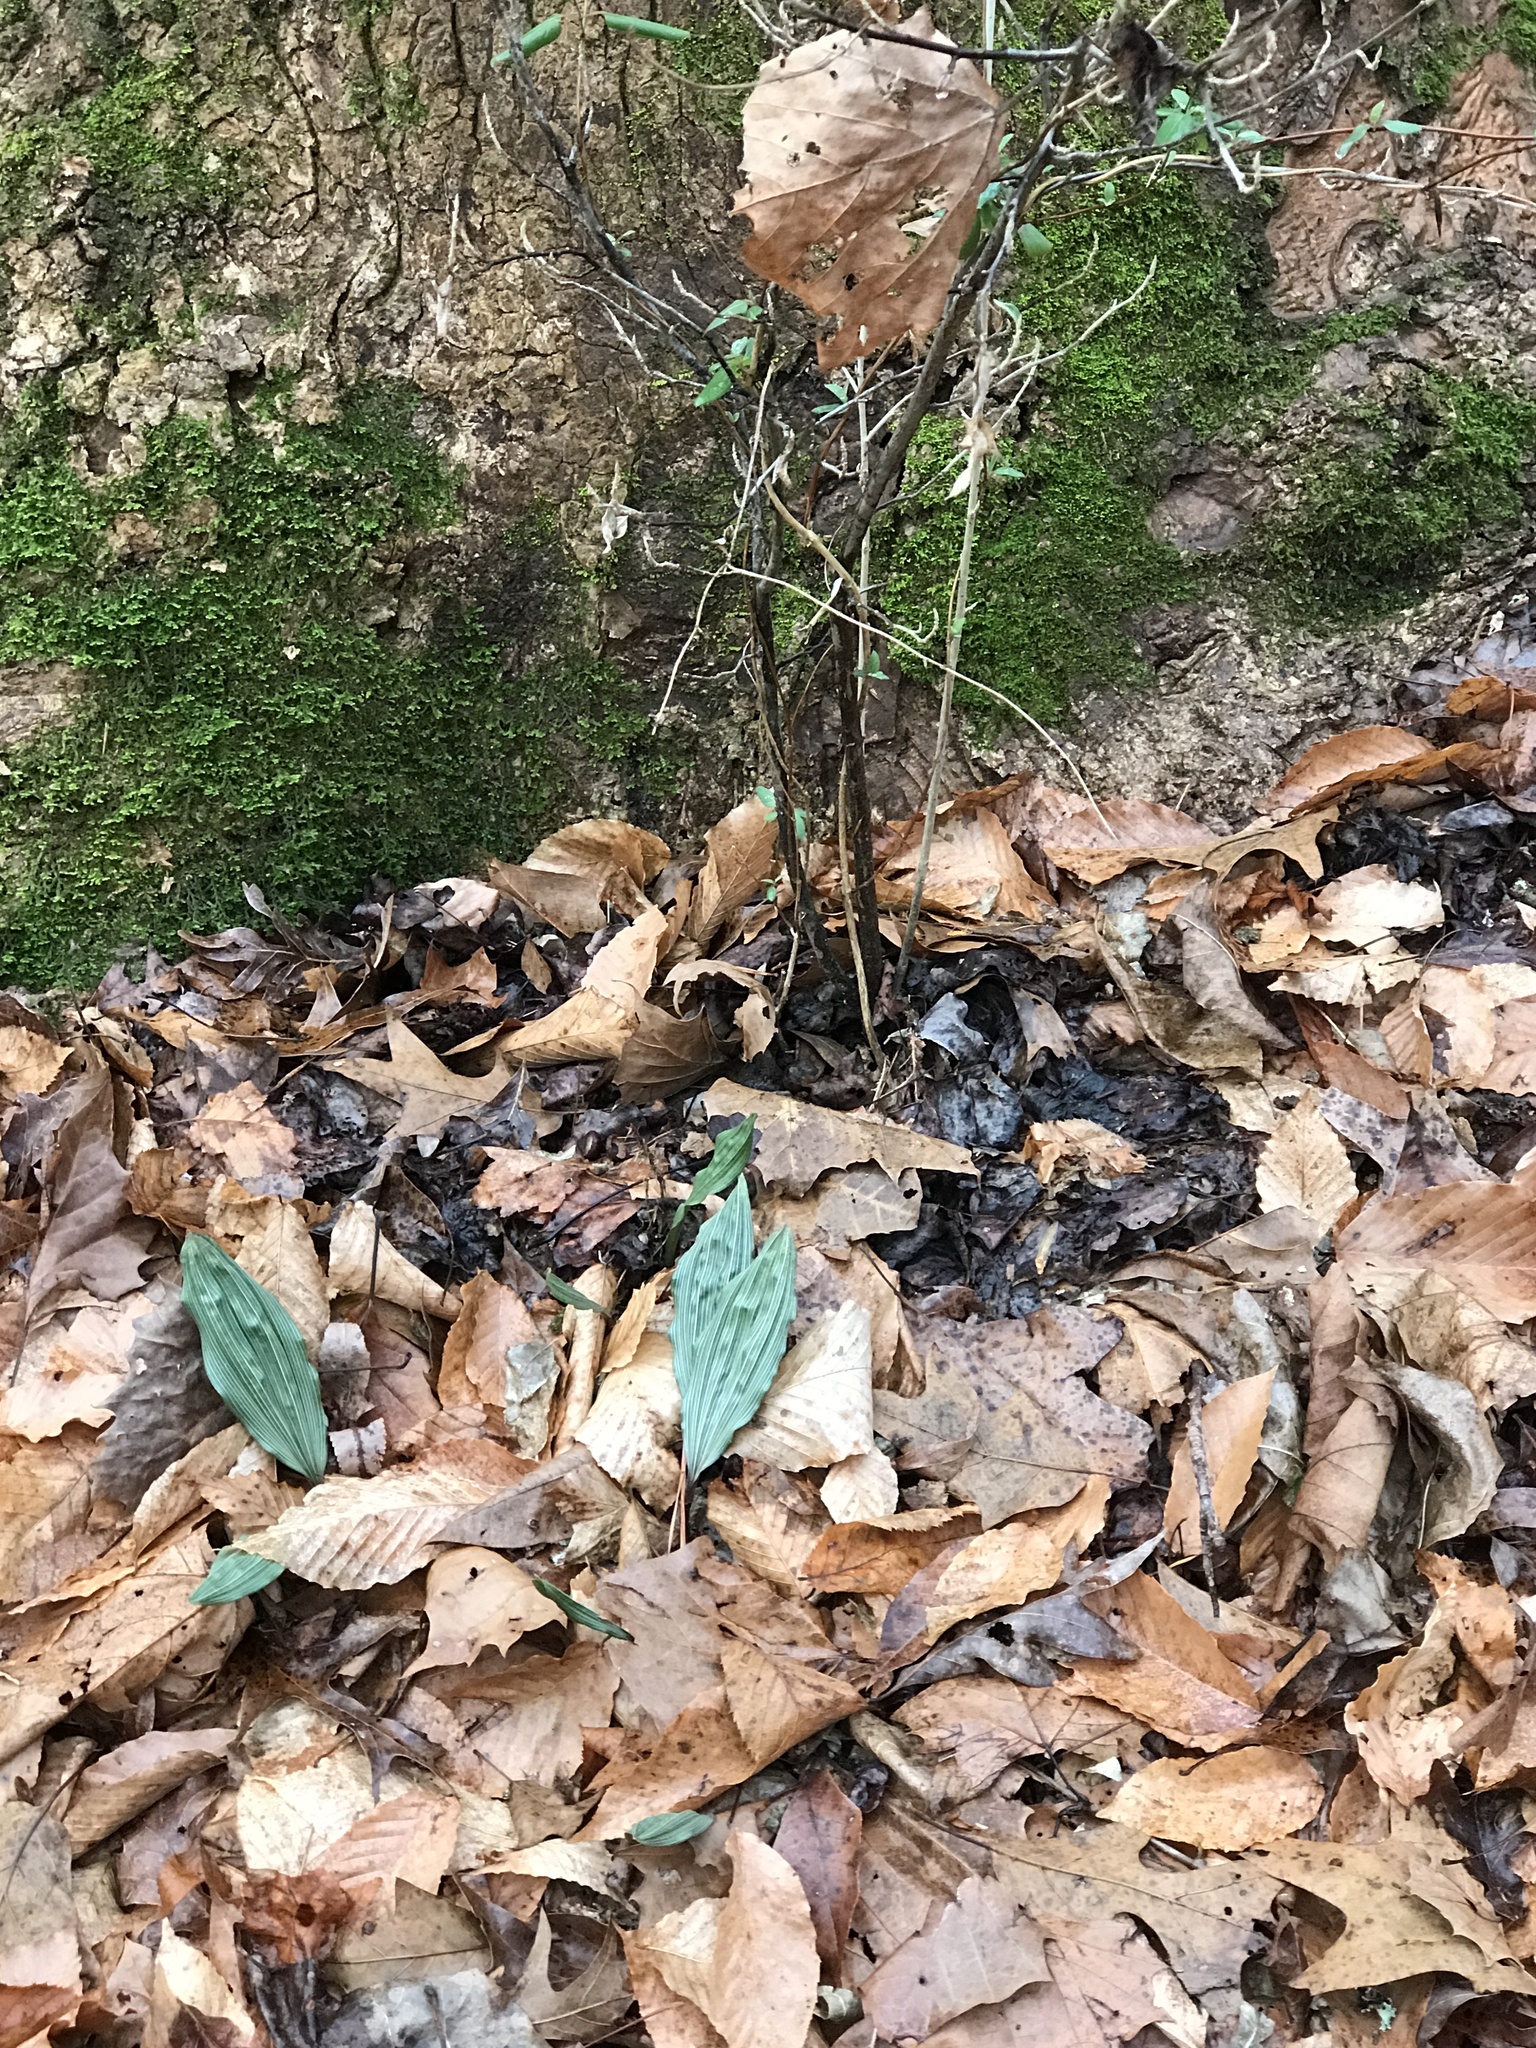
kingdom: Plantae
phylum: Tracheophyta
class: Liliopsida
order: Asparagales
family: Orchidaceae
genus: Aplectrum
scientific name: Aplectrum hyemale
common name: Adam-and-eve
